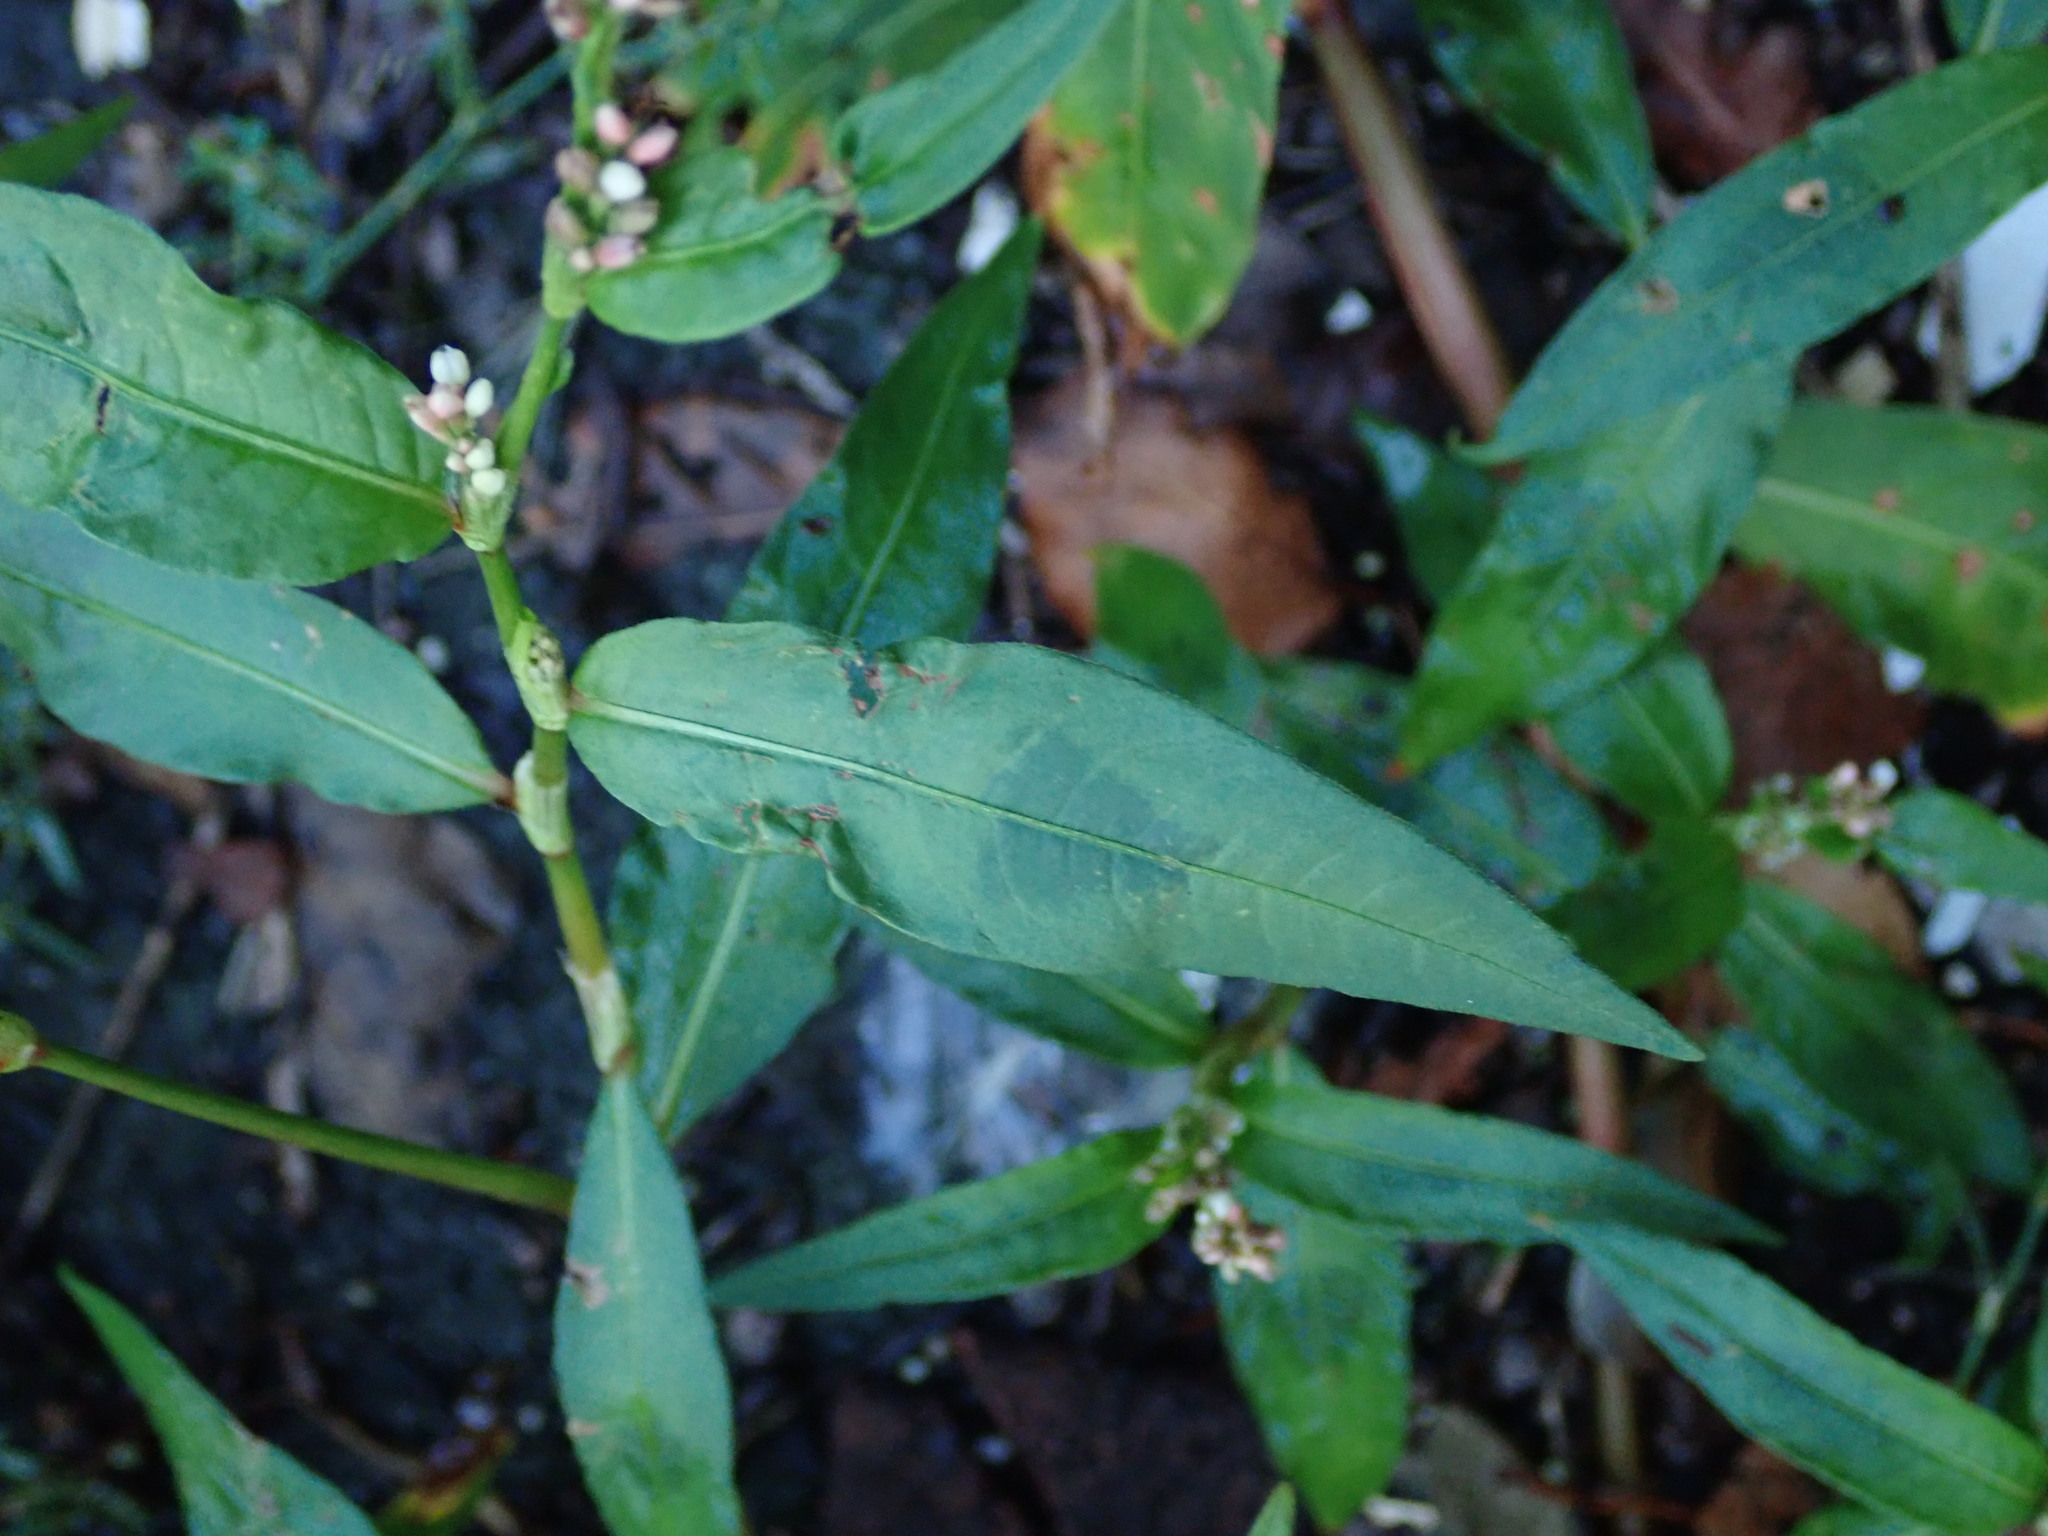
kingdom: Plantae
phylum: Tracheophyta
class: Magnoliopsida
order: Caryophyllales
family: Polygonaceae
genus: Persicaria
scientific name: Persicaria maculosa
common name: Redshank
